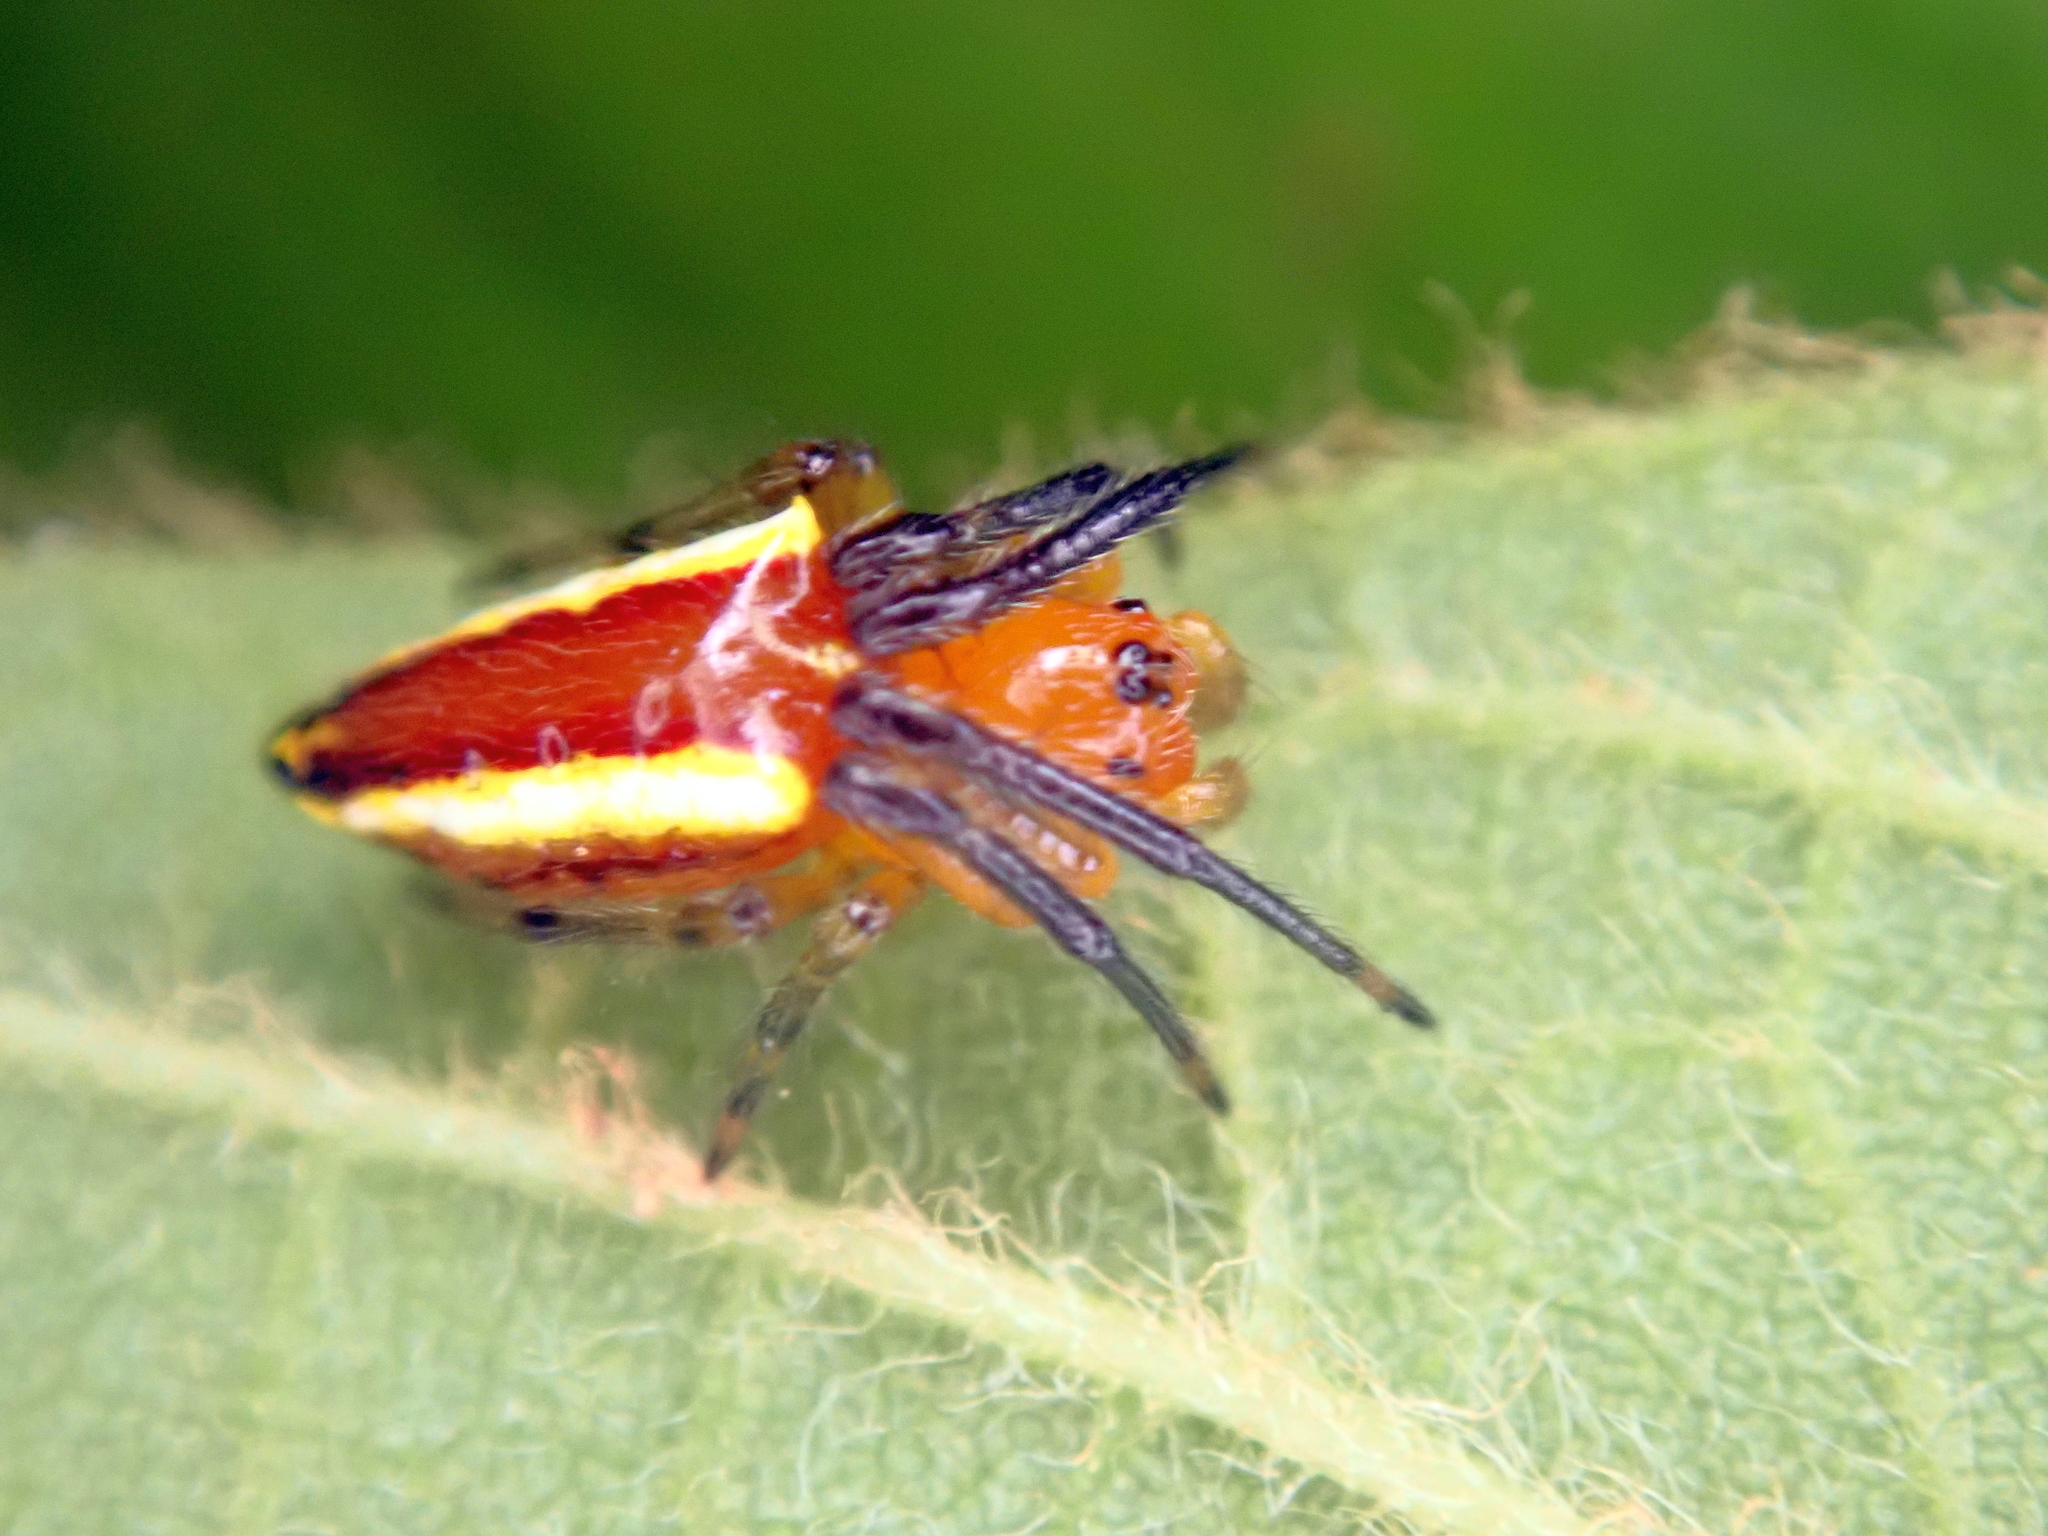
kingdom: Animalia
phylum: Arthropoda
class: Arachnida
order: Araneae
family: Araneidae
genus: Alpaida
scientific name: Alpaida bicornuta
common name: Orb weavers
